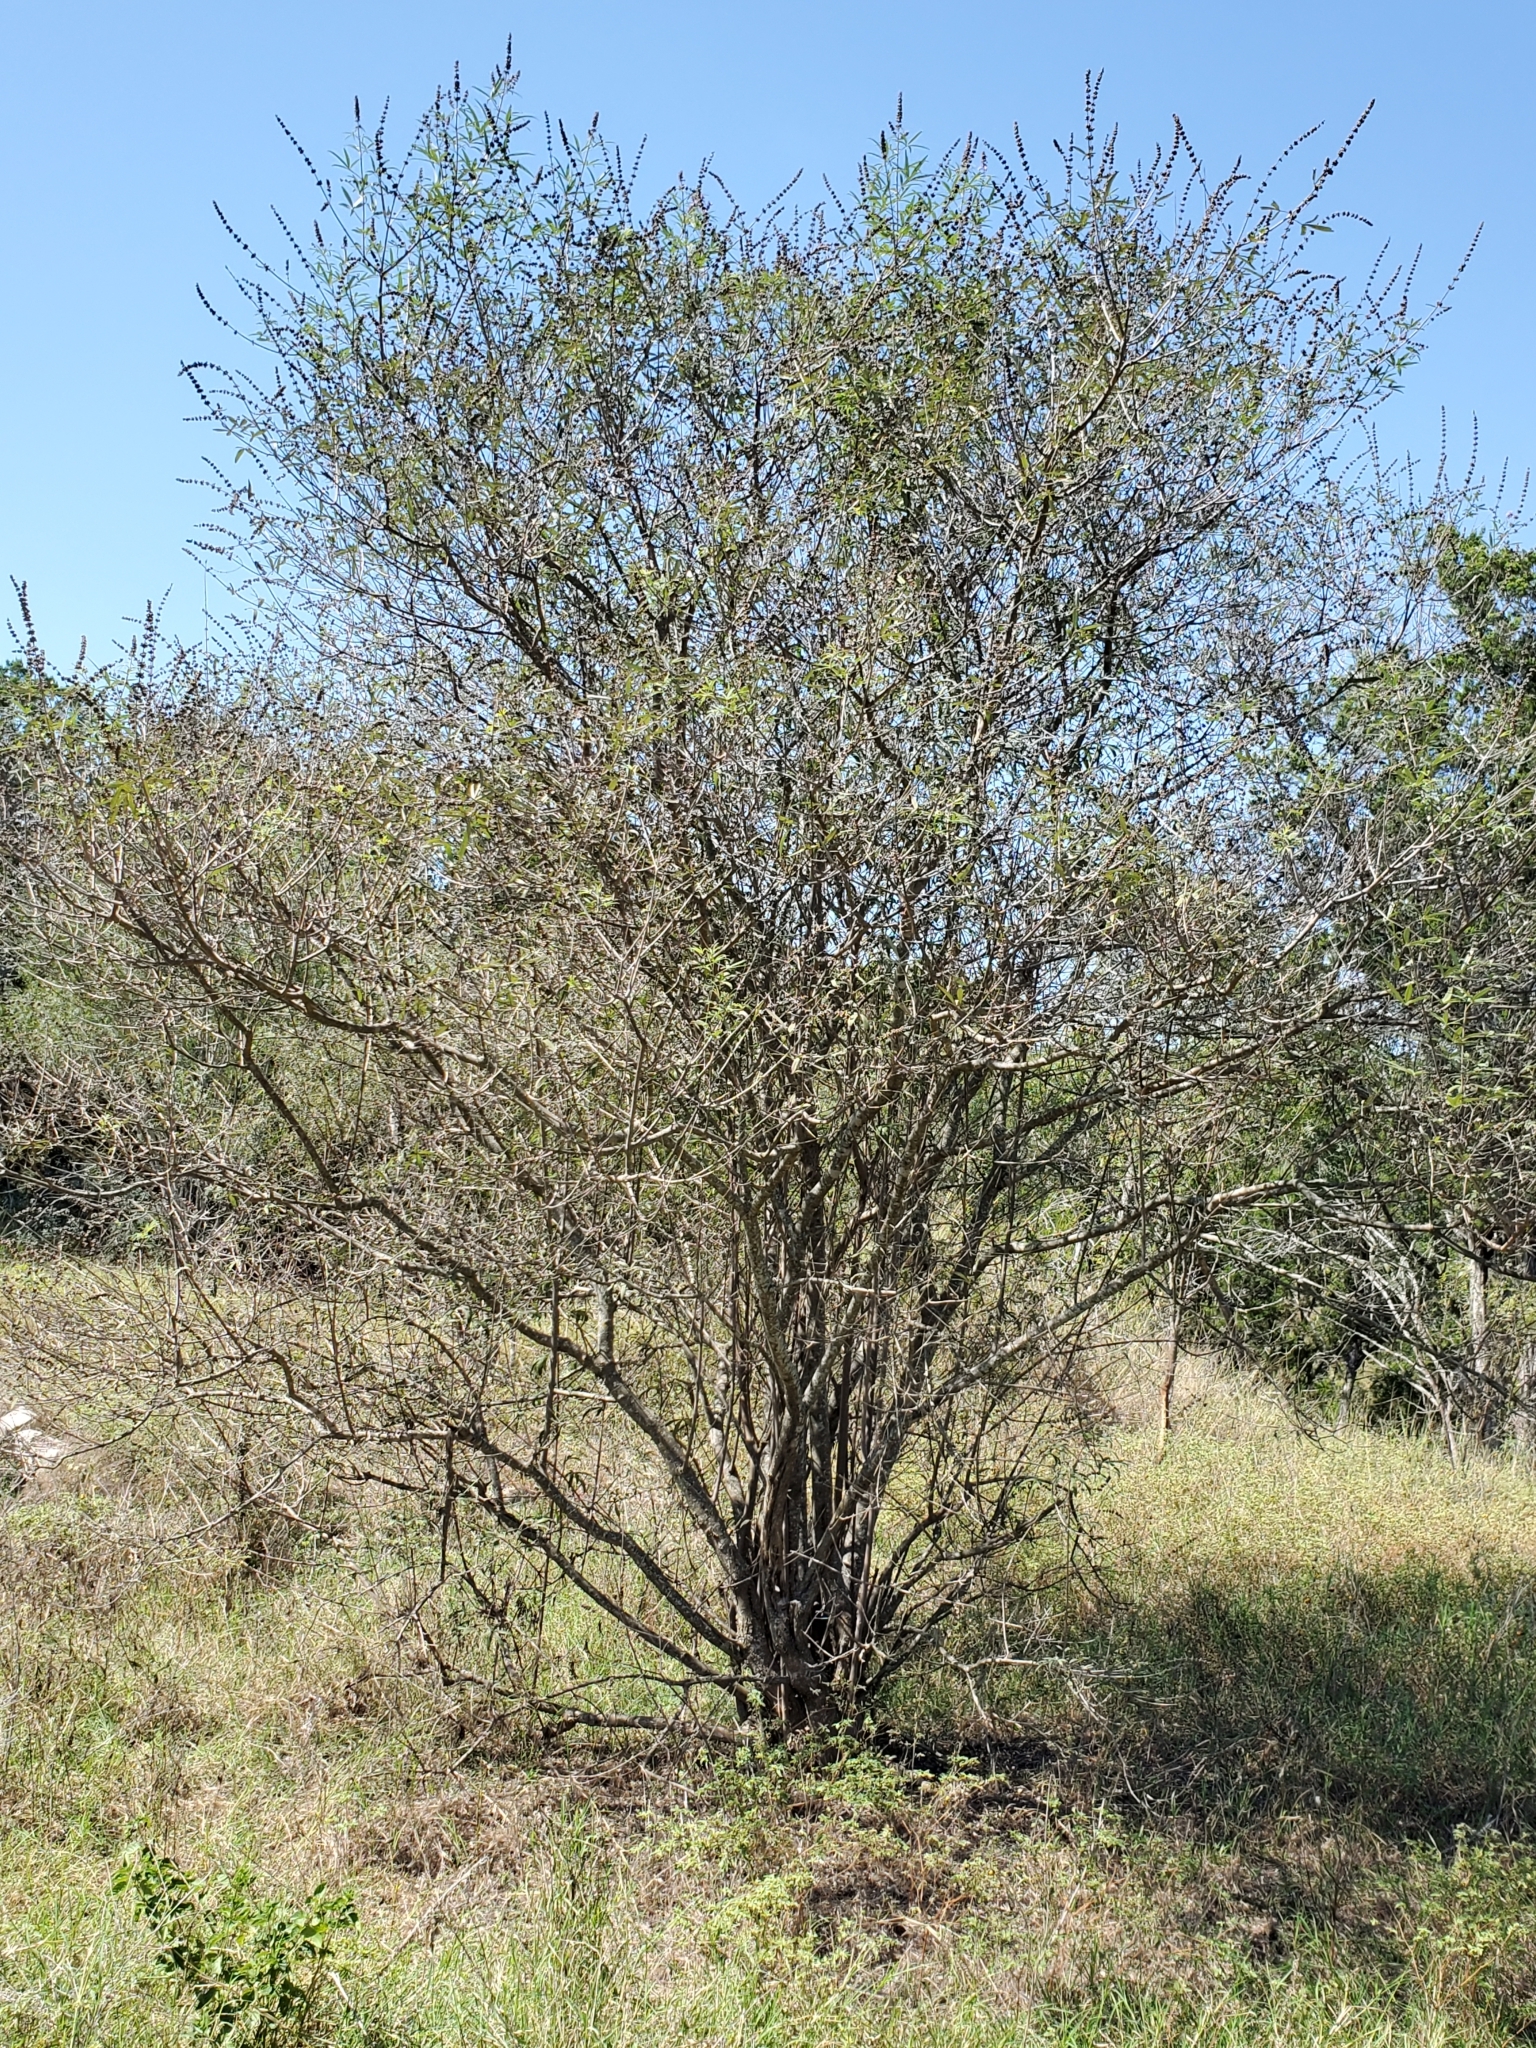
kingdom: Plantae
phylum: Tracheophyta
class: Magnoliopsida
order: Lamiales
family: Lamiaceae
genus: Vitex
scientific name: Vitex agnus-castus
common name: Chasteberry
